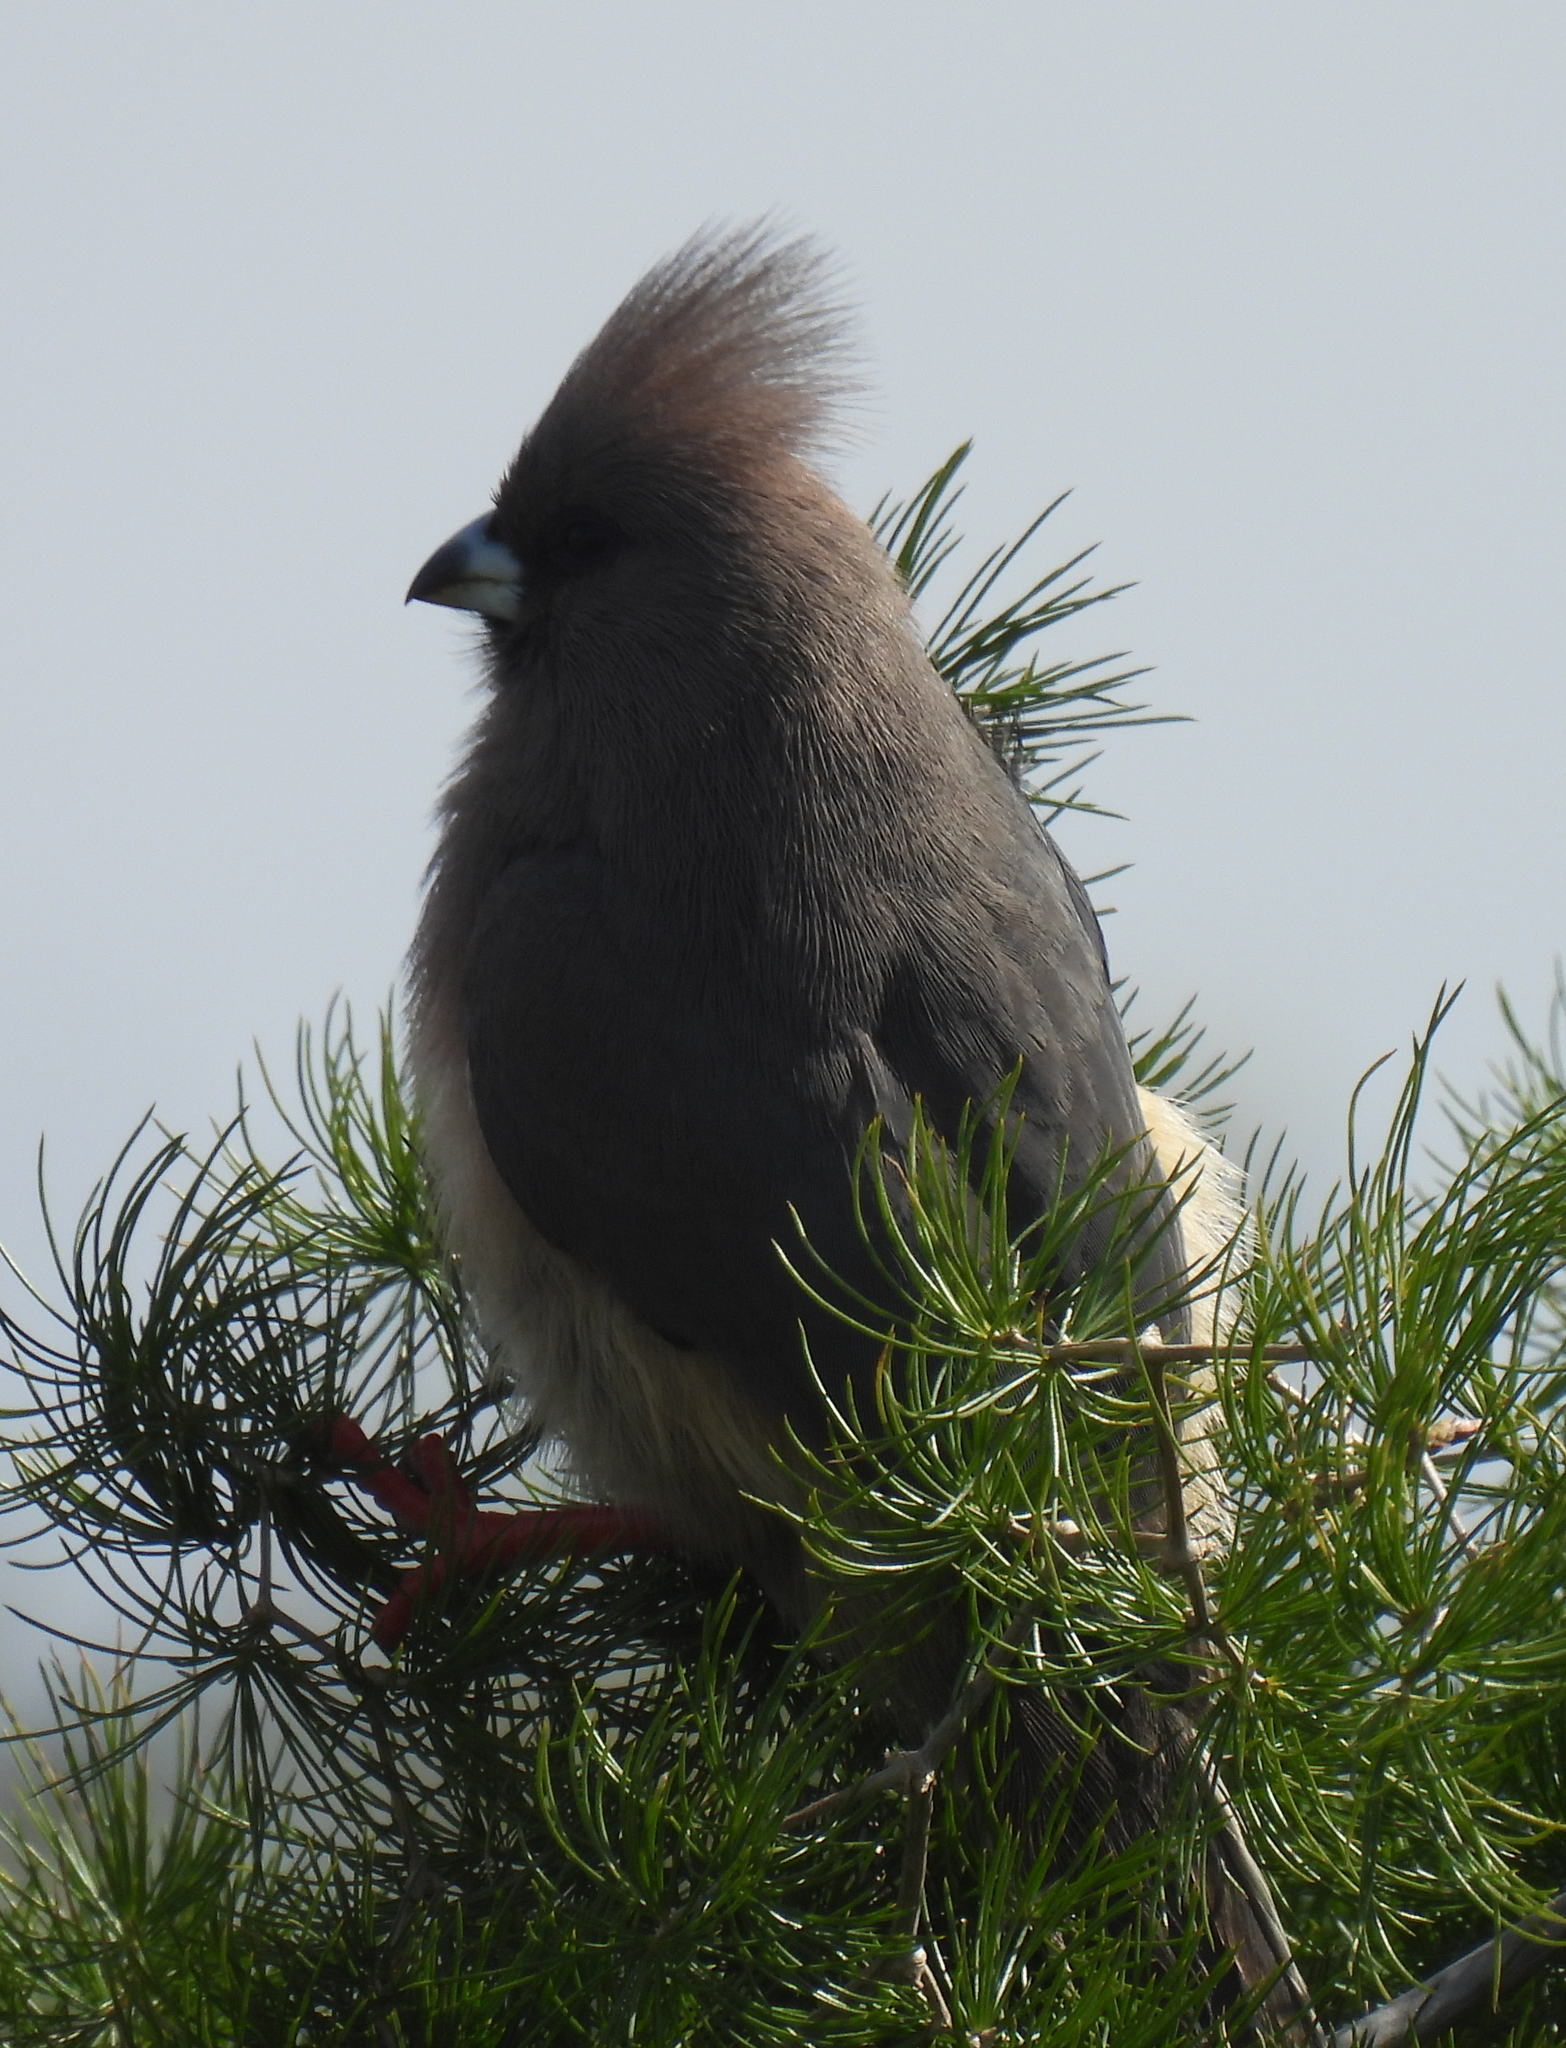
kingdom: Animalia
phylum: Chordata
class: Aves
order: Coliiformes
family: Coliidae
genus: Colius
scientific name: Colius colius
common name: White-backed mousebird
